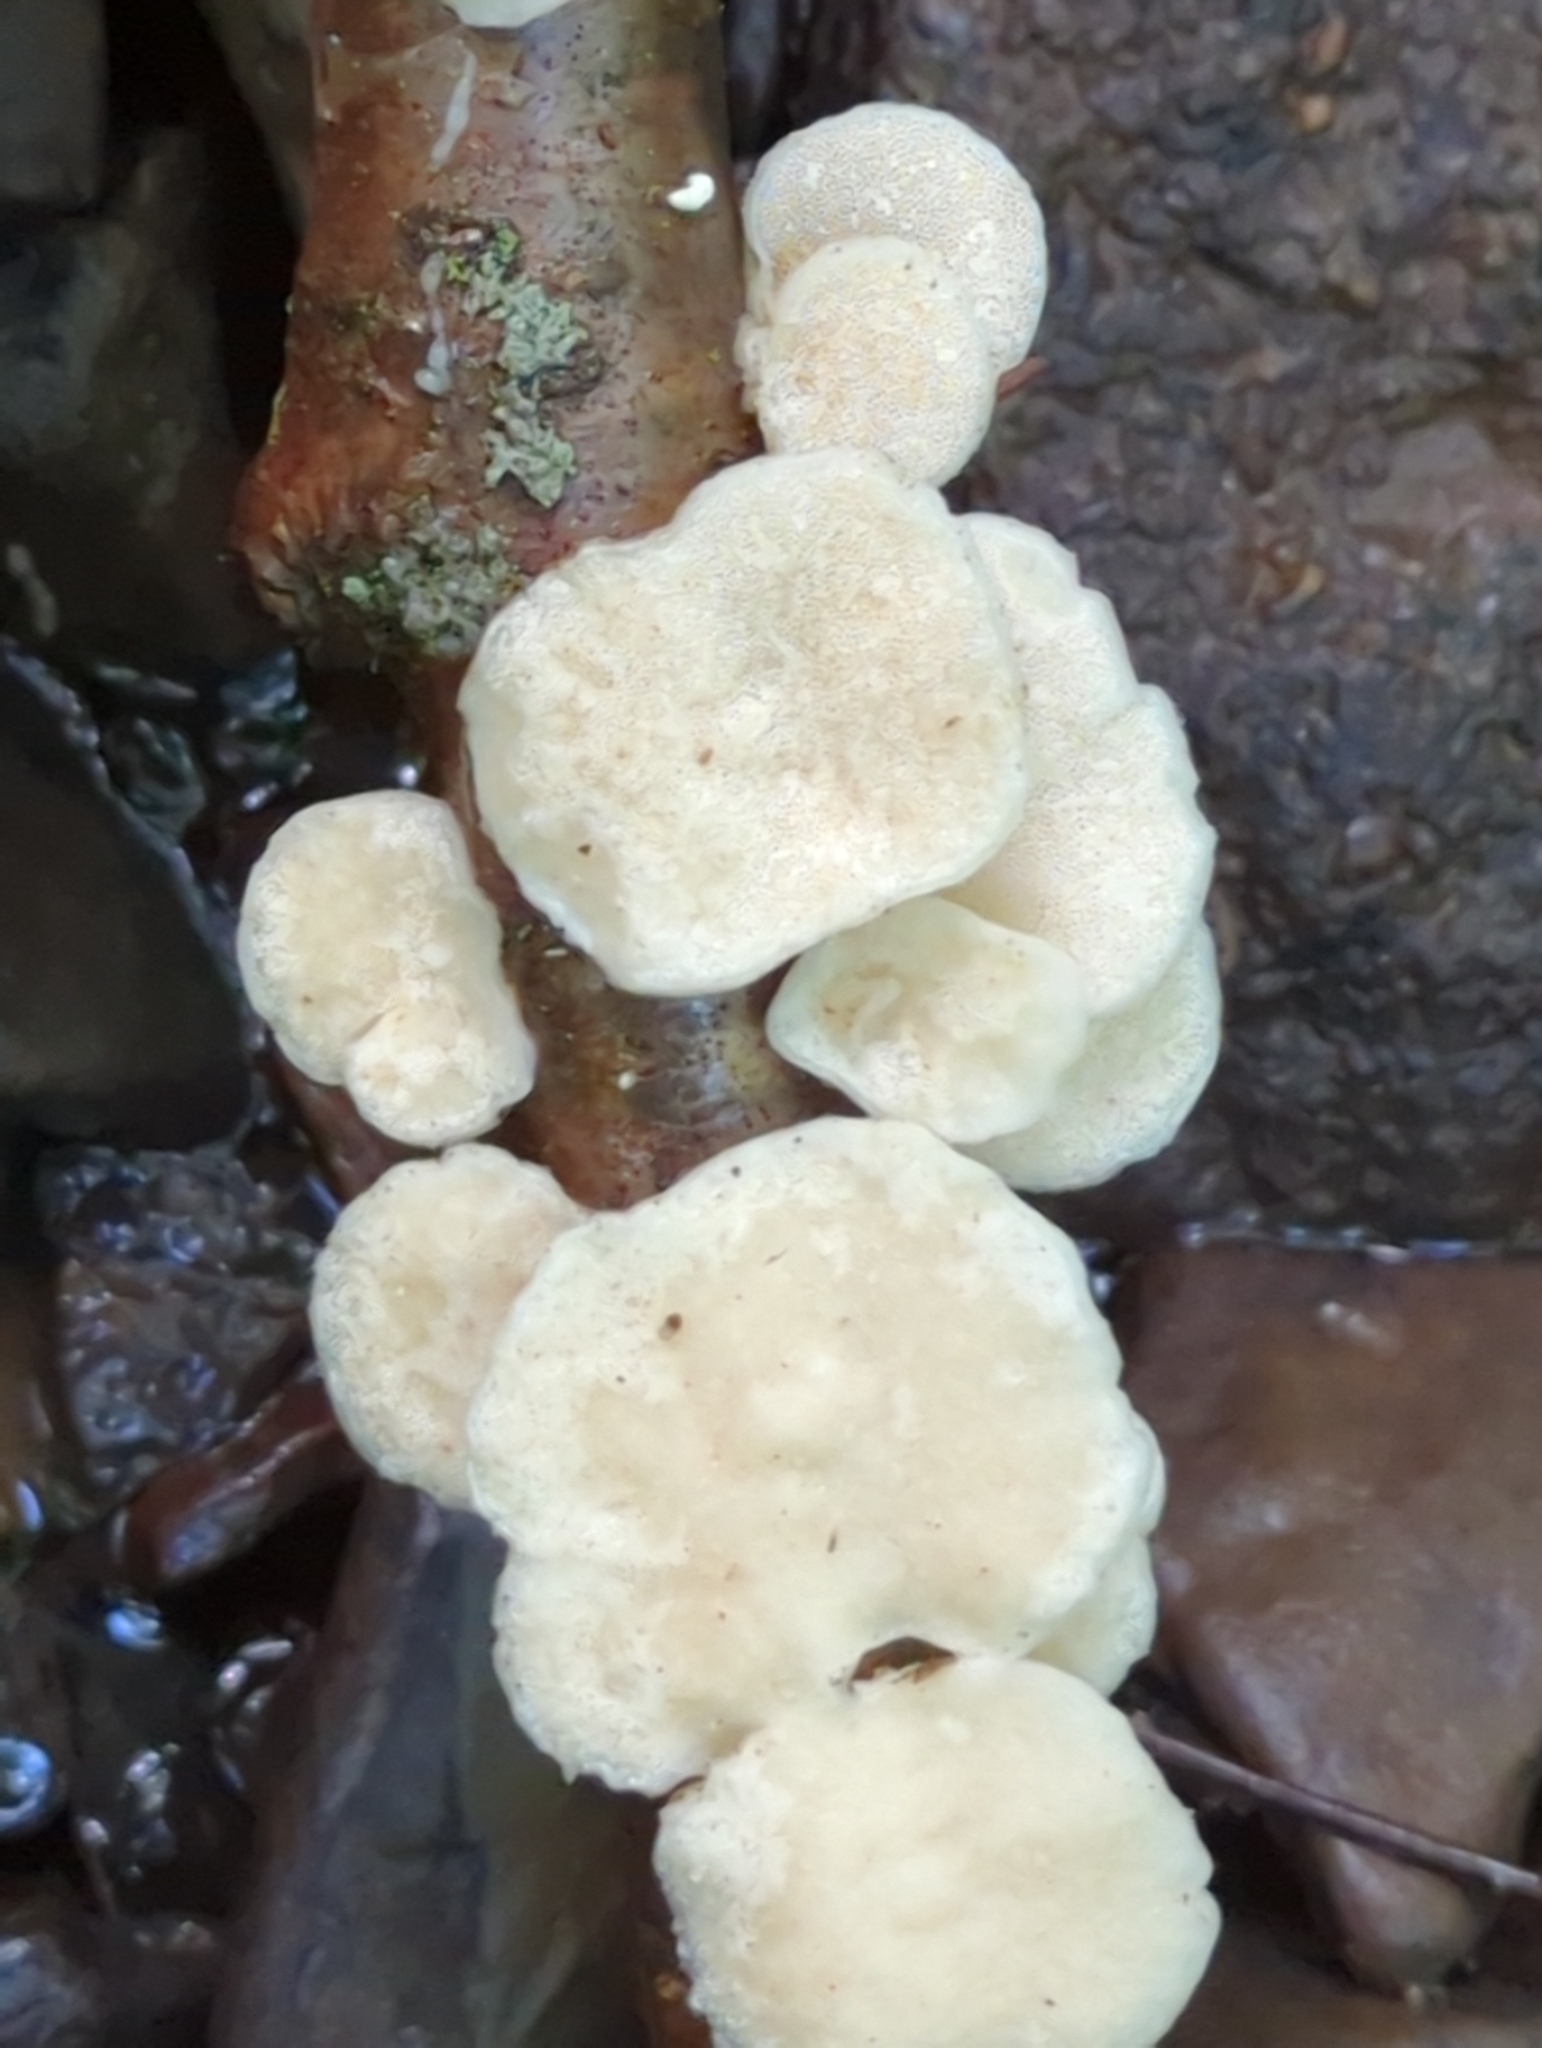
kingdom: Fungi
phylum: Basidiomycota
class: Agaricomycetes
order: Polyporales
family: Incrustoporiaceae
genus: Tyromyces
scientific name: Tyromyces chioneus
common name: White cheese polypore
